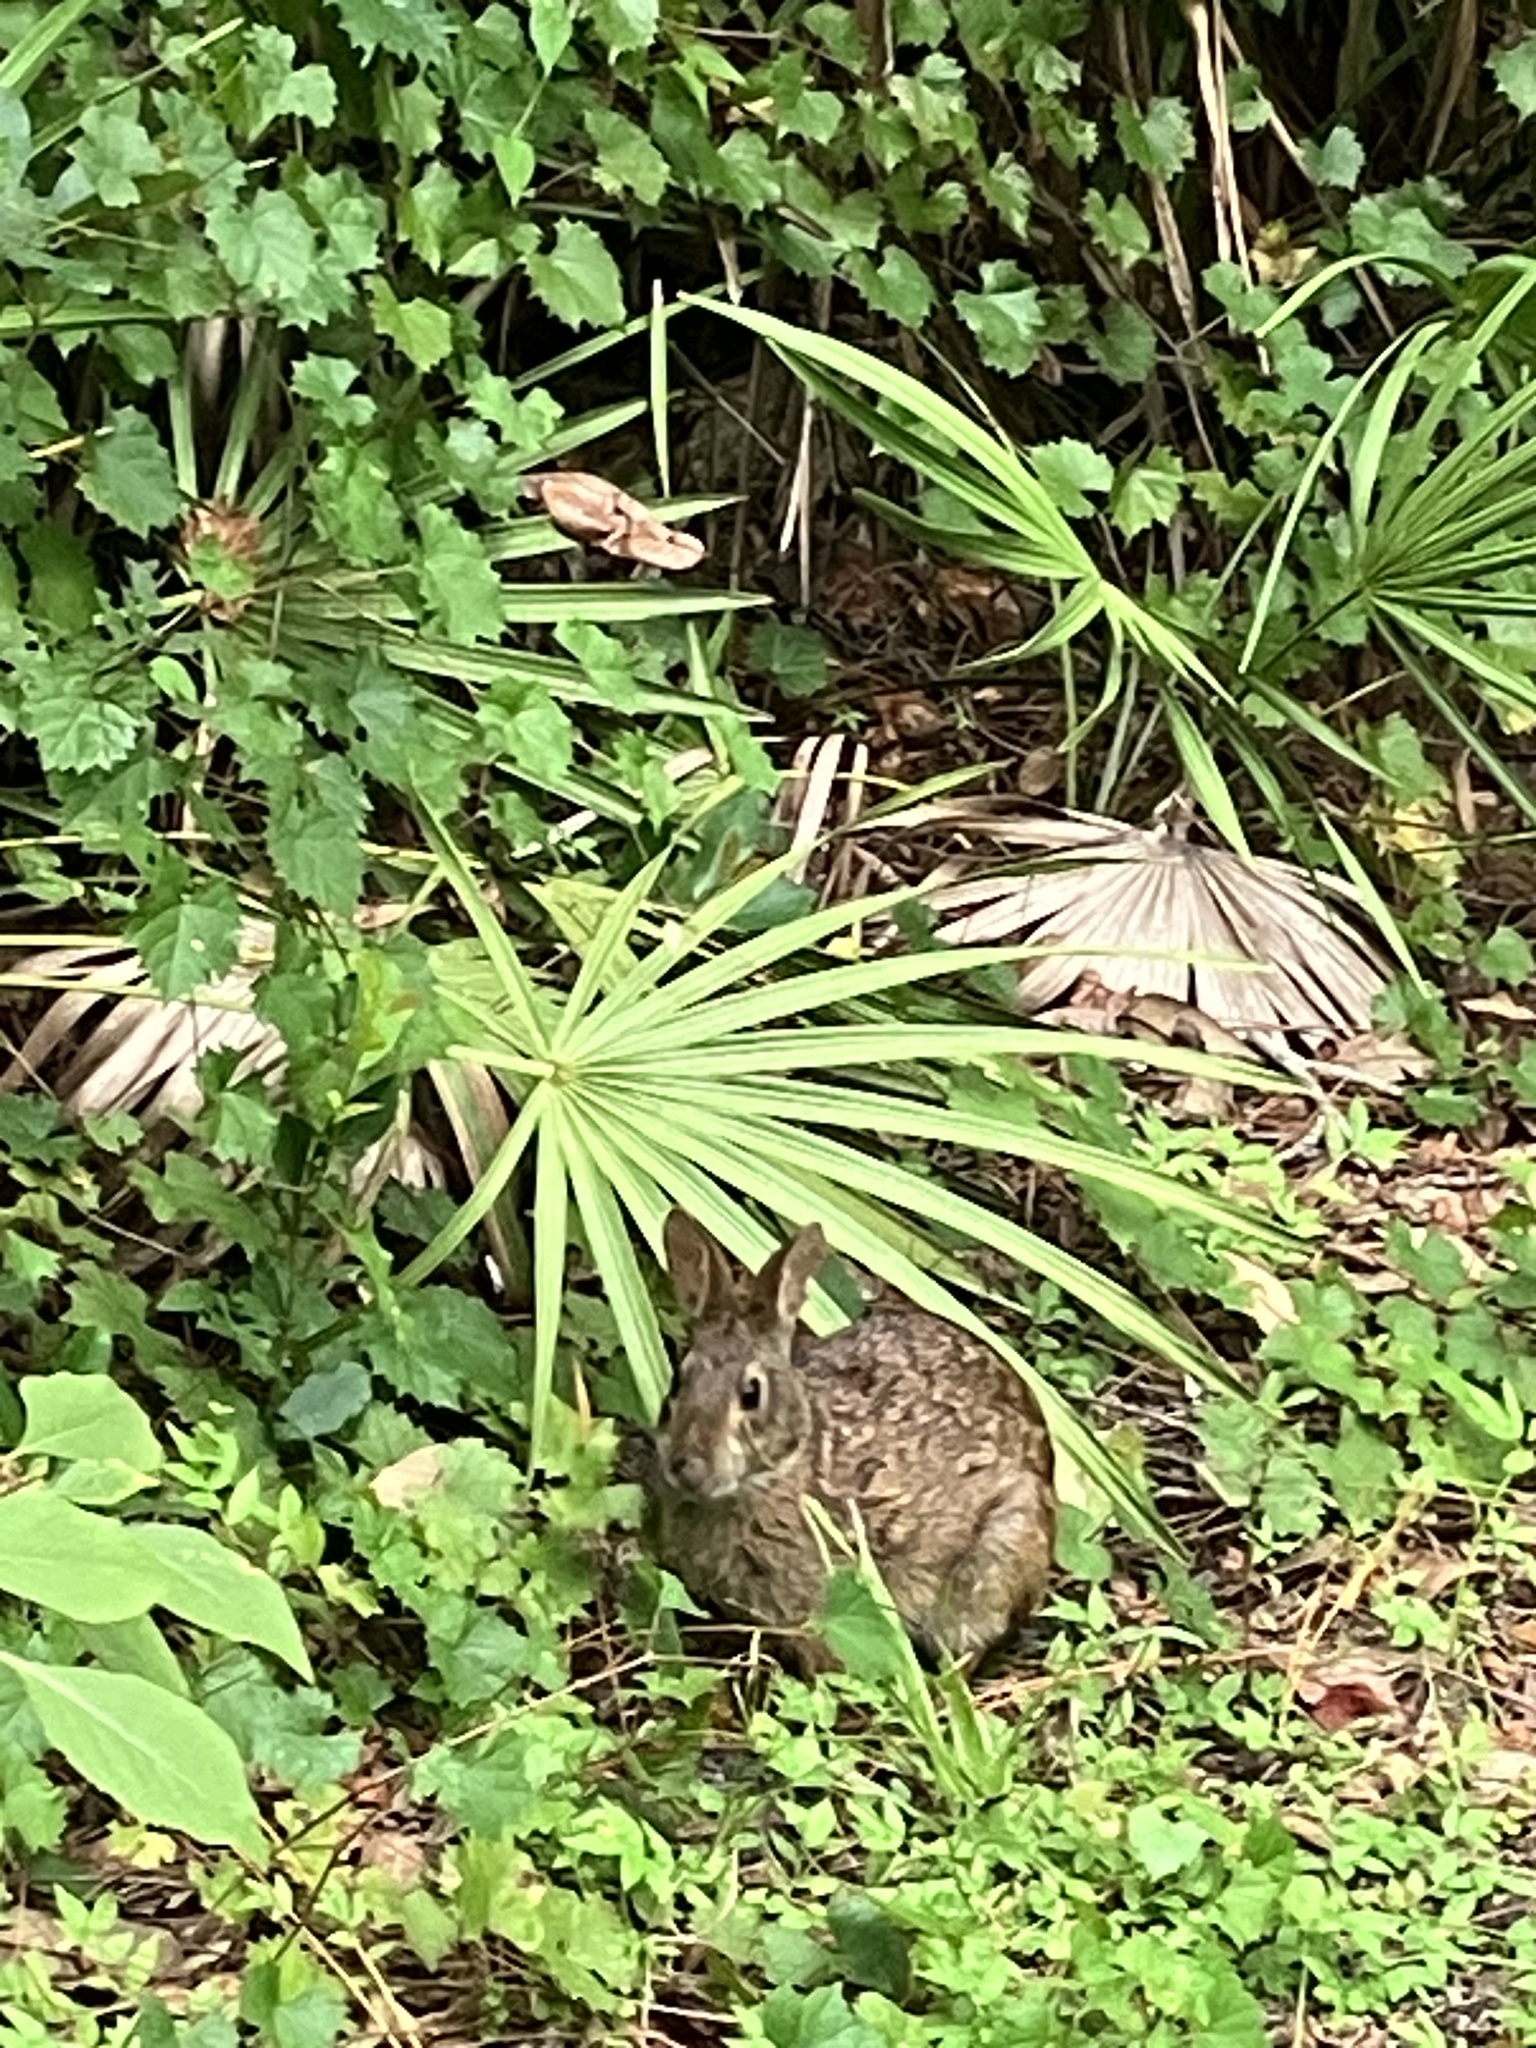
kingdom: Animalia
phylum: Chordata
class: Mammalia
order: Lagomorpha
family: Leporidae
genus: Sylvilagus
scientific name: Sylvilagus palustris
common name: Marsh rabbit
